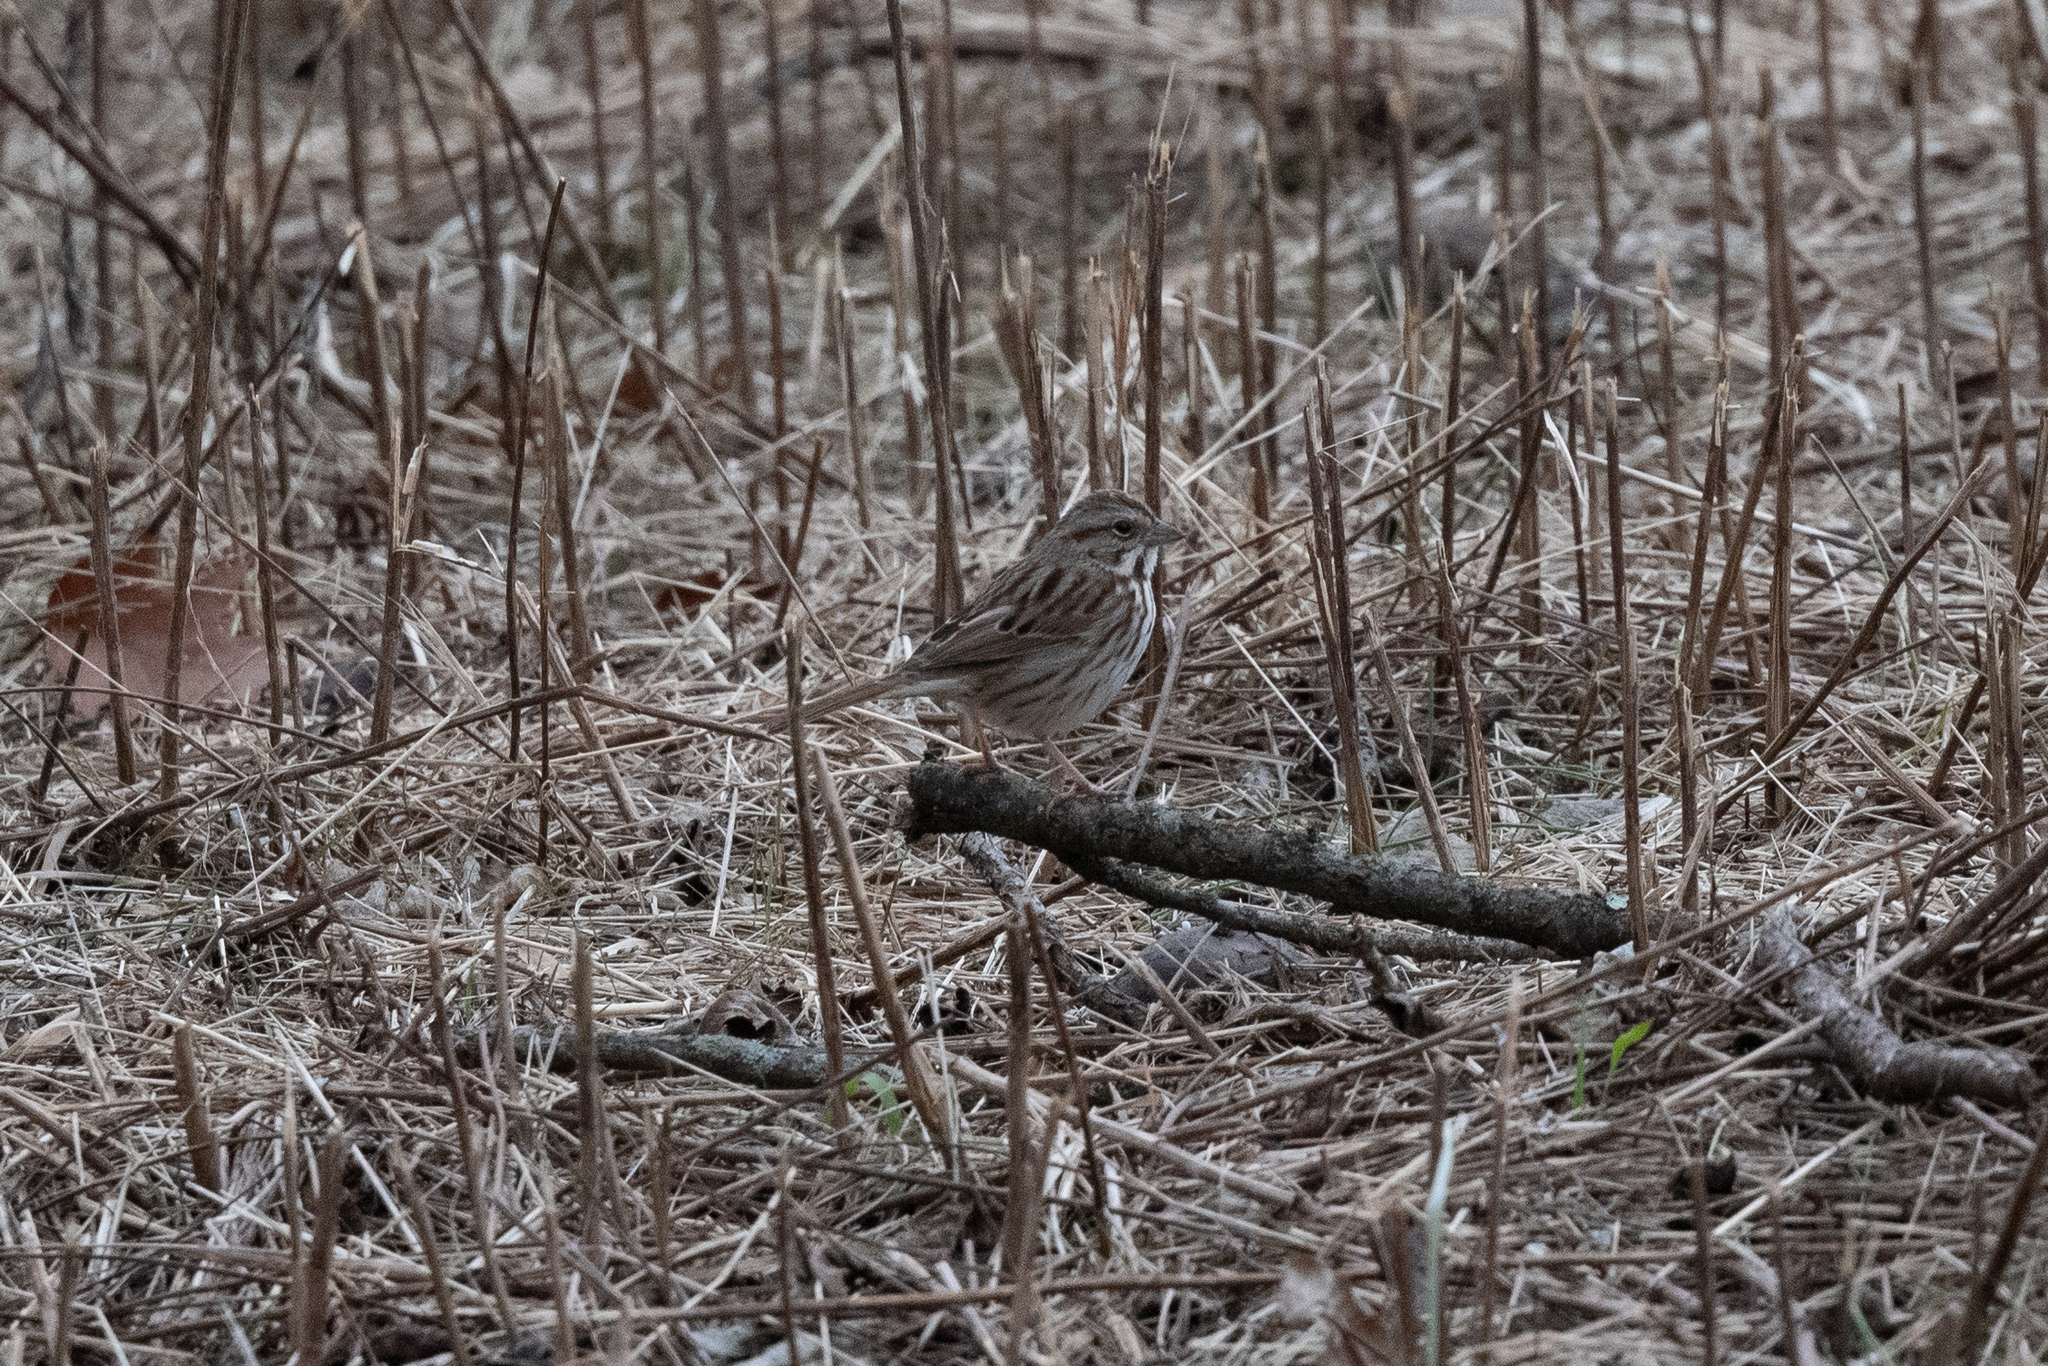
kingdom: Animalia
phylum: Chordata
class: Aves
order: Passeriformes
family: Passerellidae
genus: Melospiza
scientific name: Melospiza melodia
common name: Song sparrow
